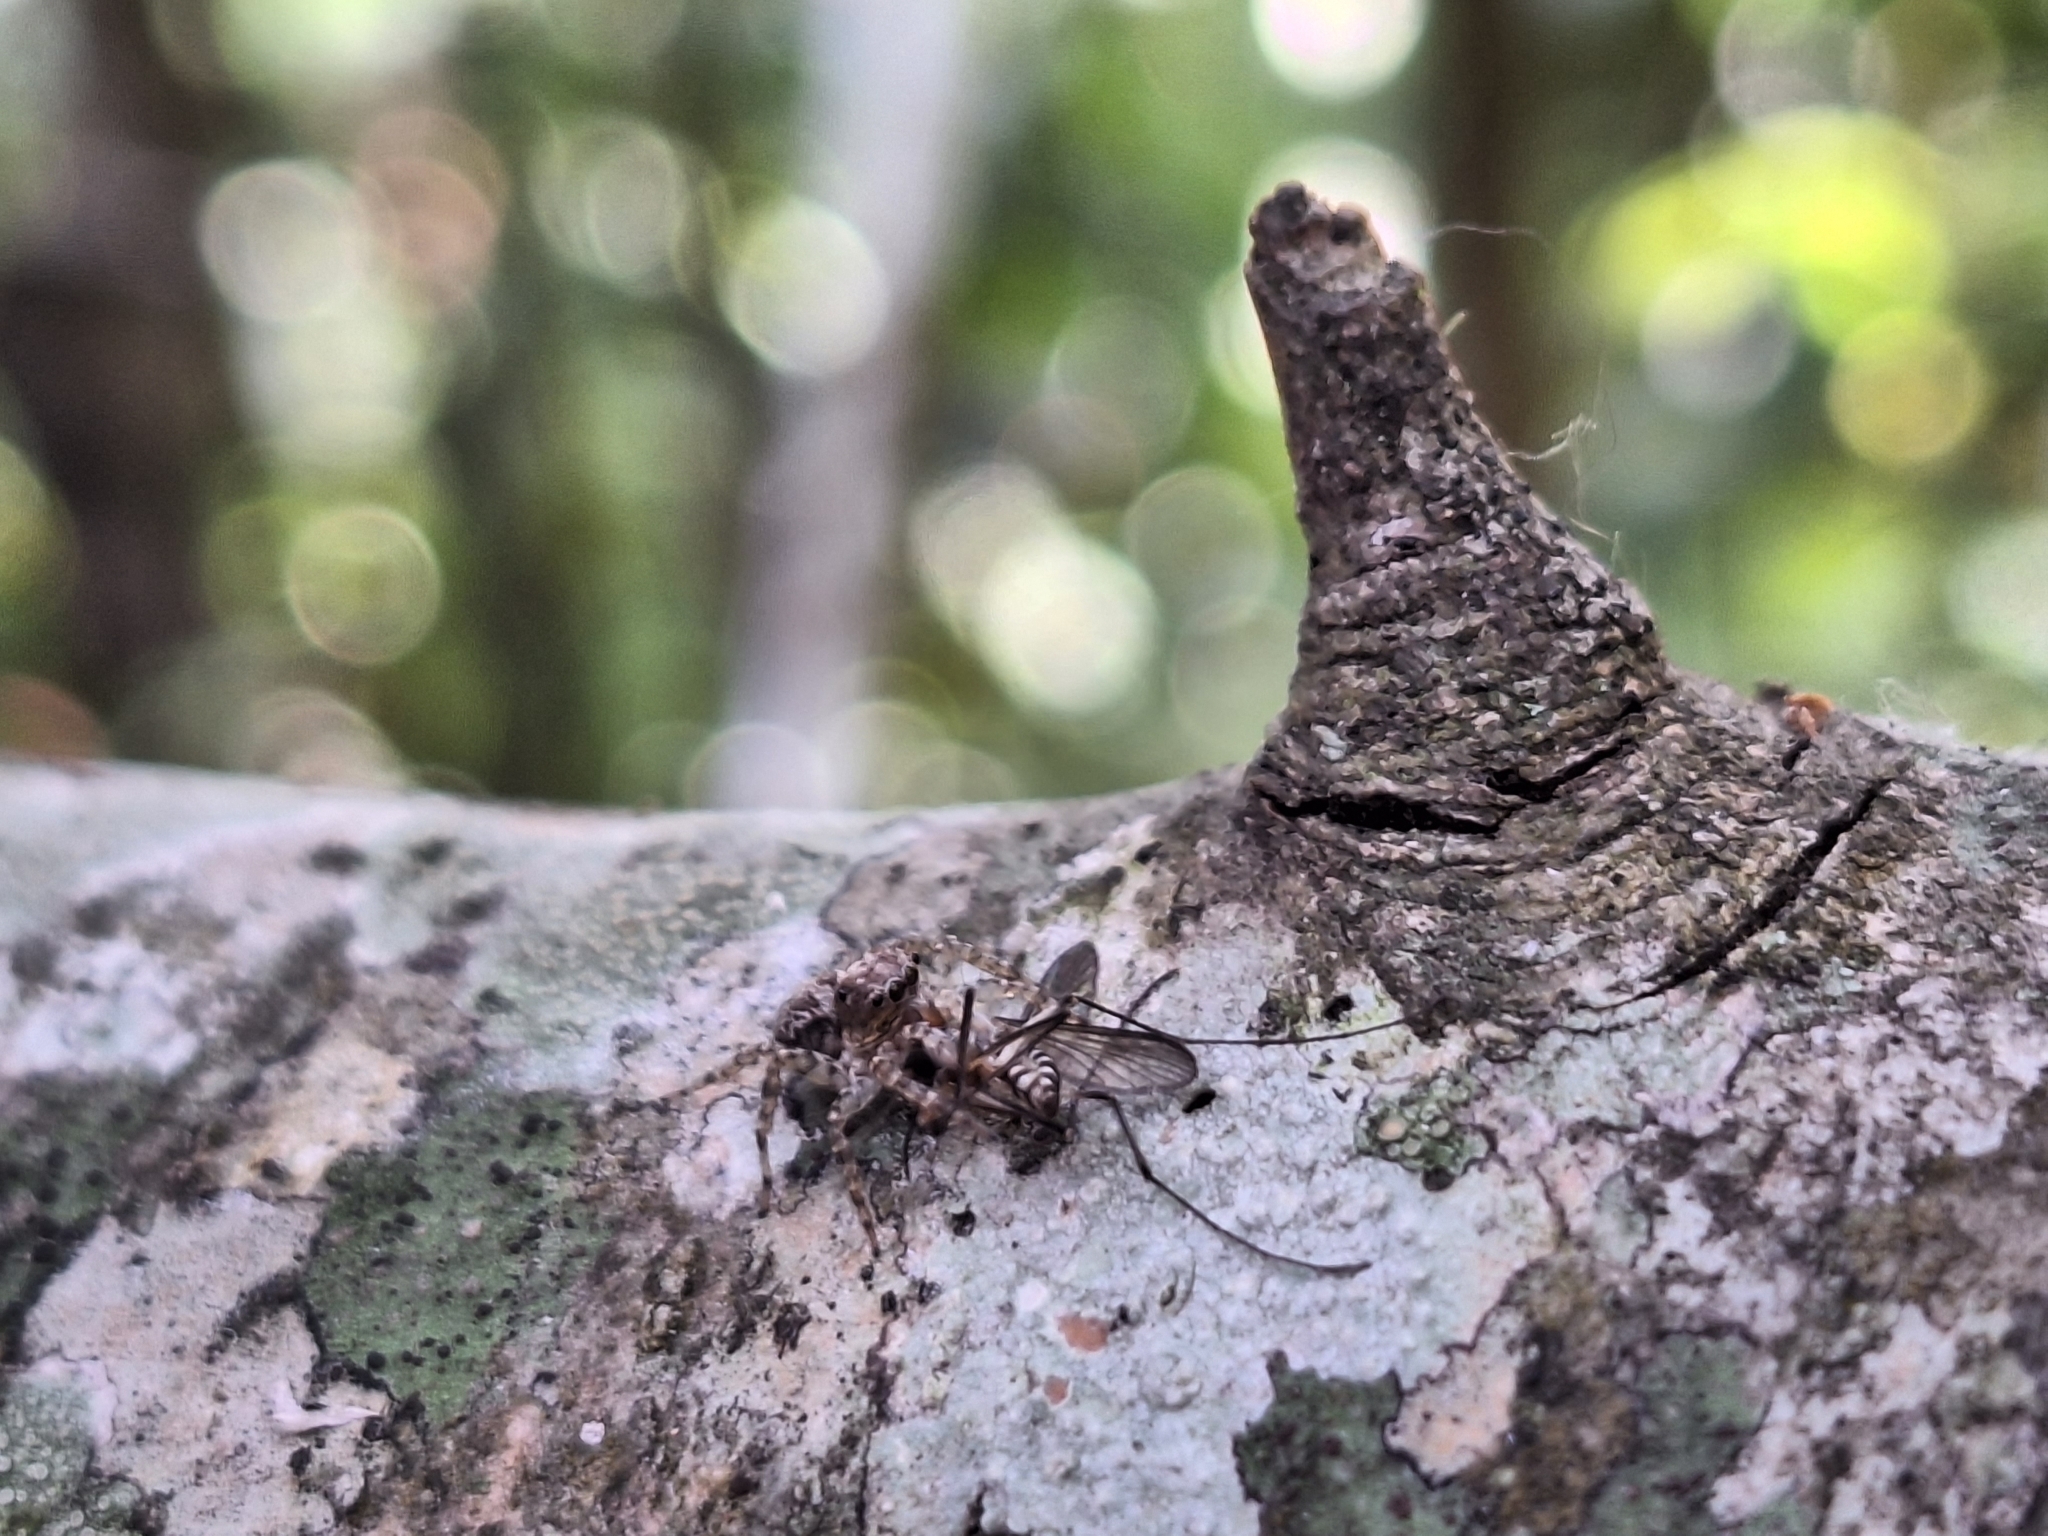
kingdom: Animalia
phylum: Arthropoda
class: Arachnida
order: Araneae
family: Salticidae
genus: Saitis
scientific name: Saitis variegatus
